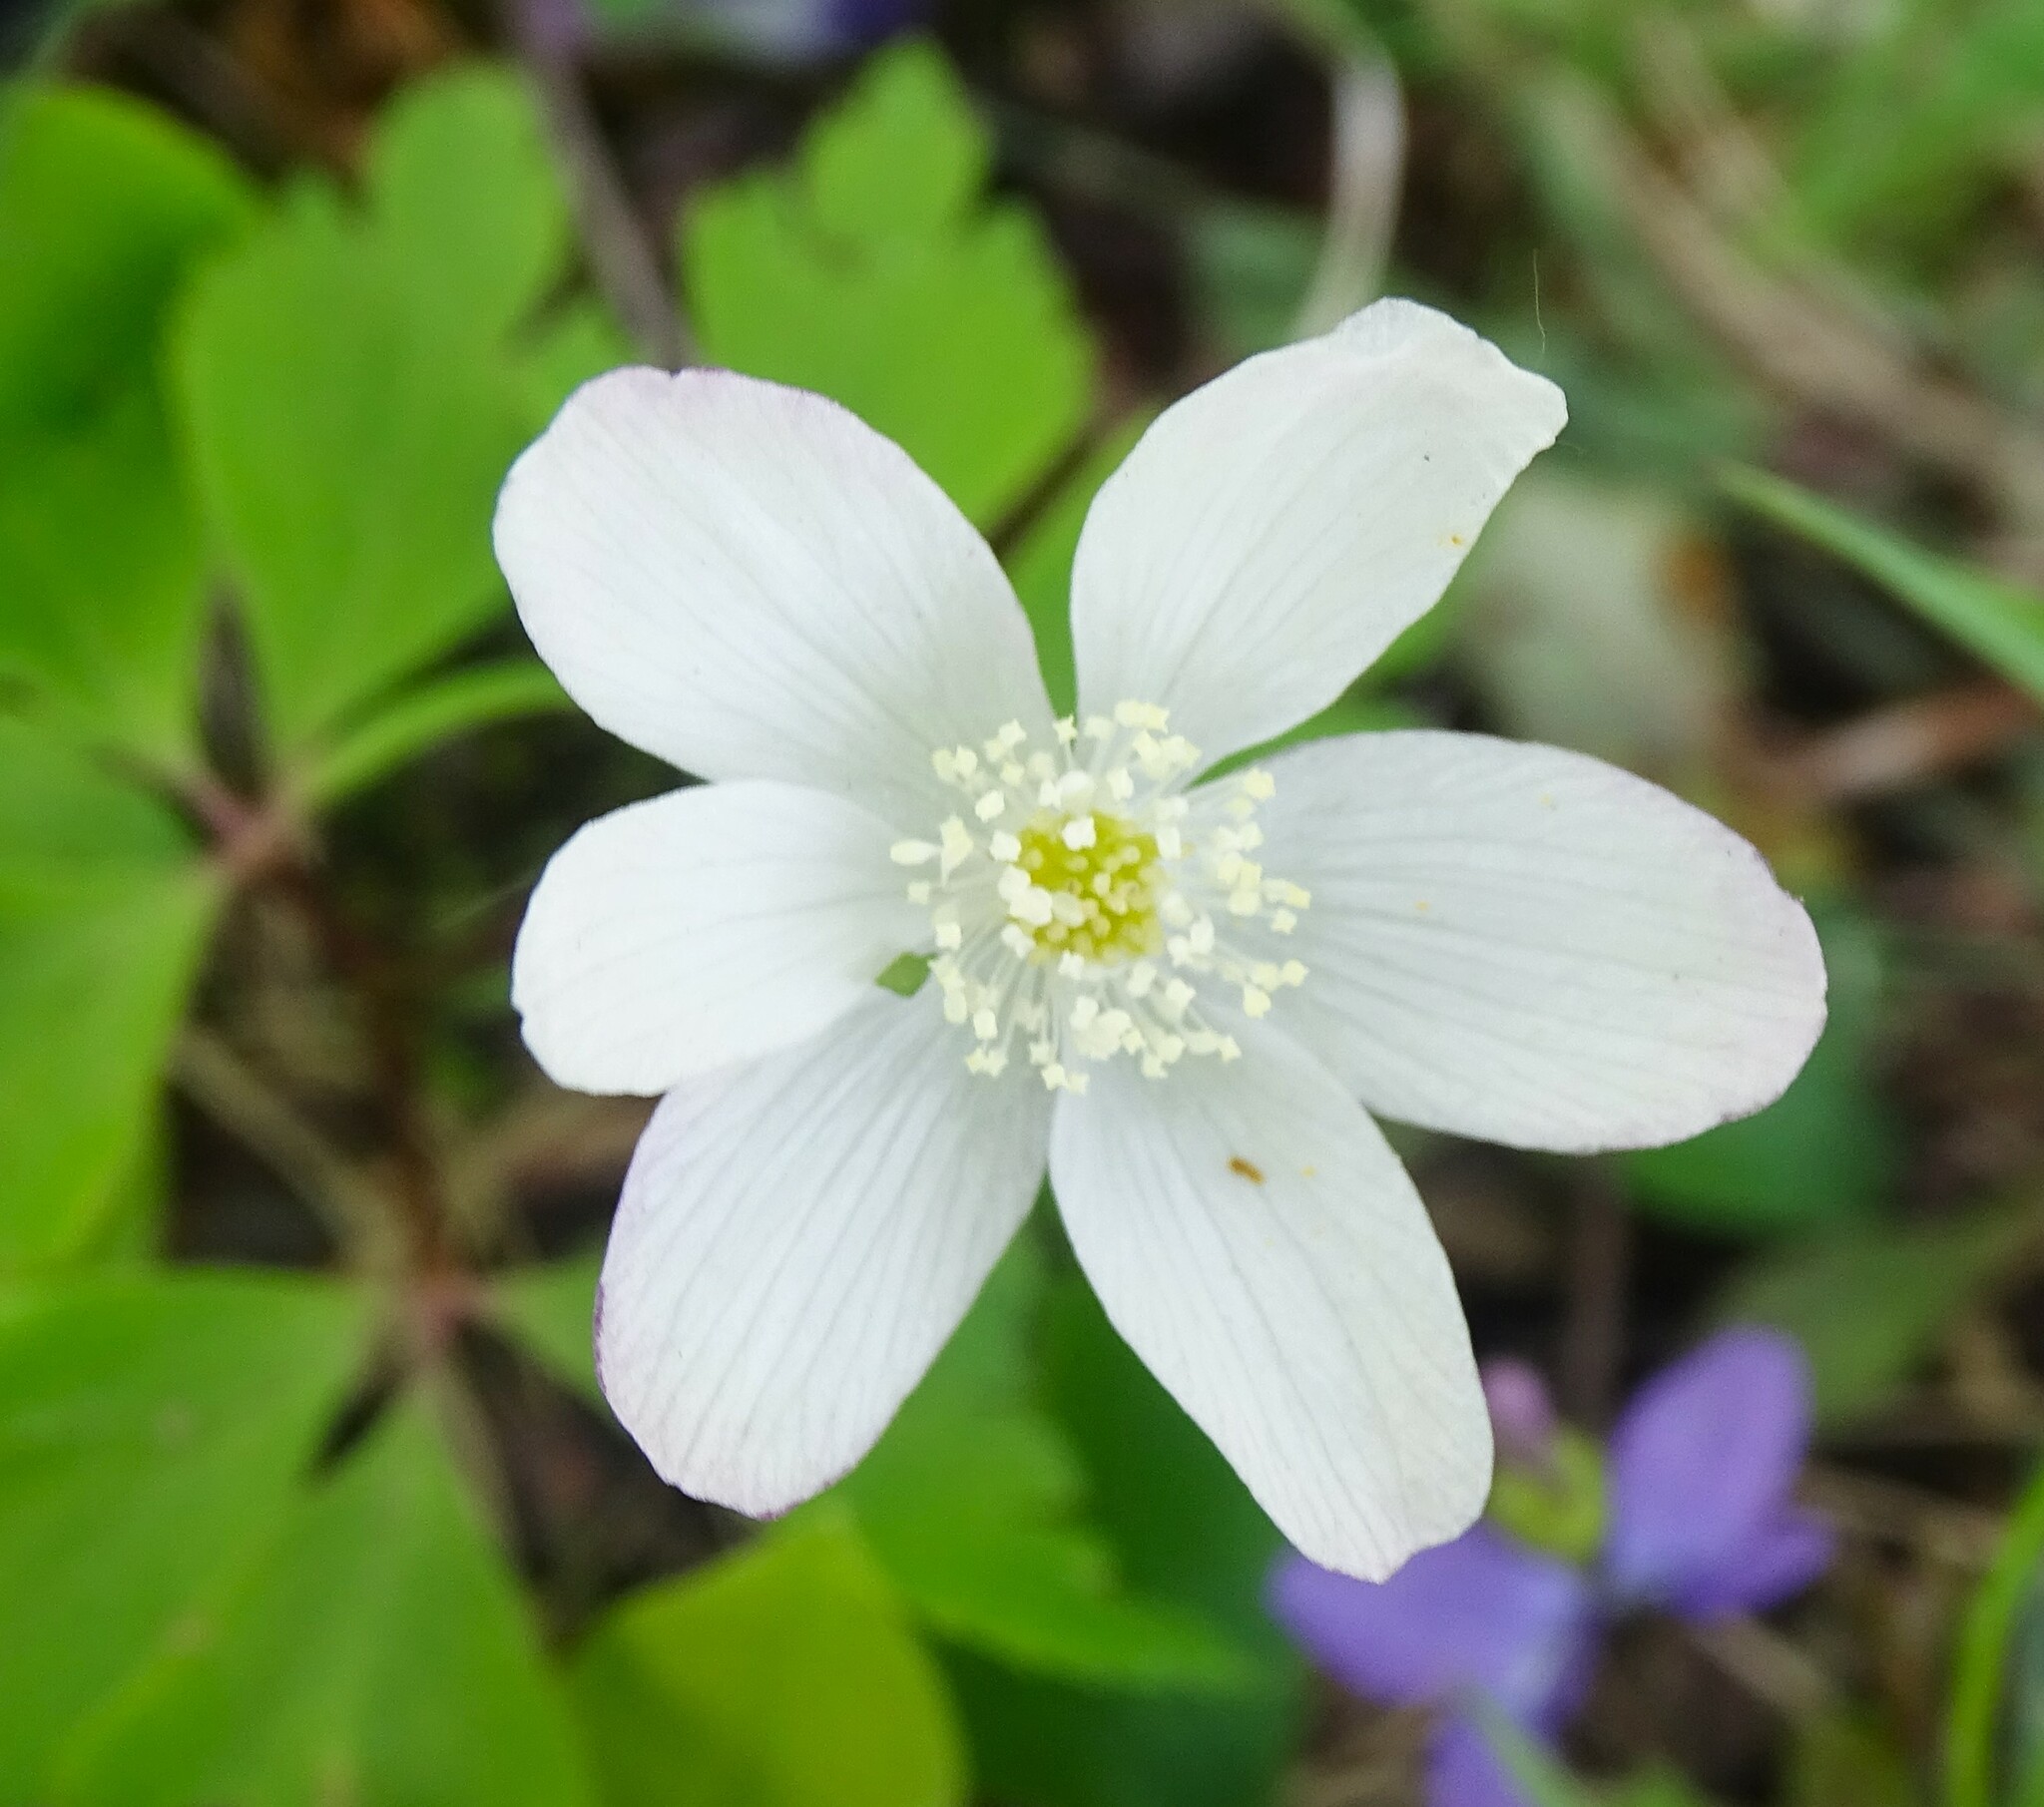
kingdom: Plantae
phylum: Tracheophyta
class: Magnoliopsida
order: Ranunculales
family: Ranunculaceae
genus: Anemone
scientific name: Anemone quinquefolia
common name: Wood anemone
